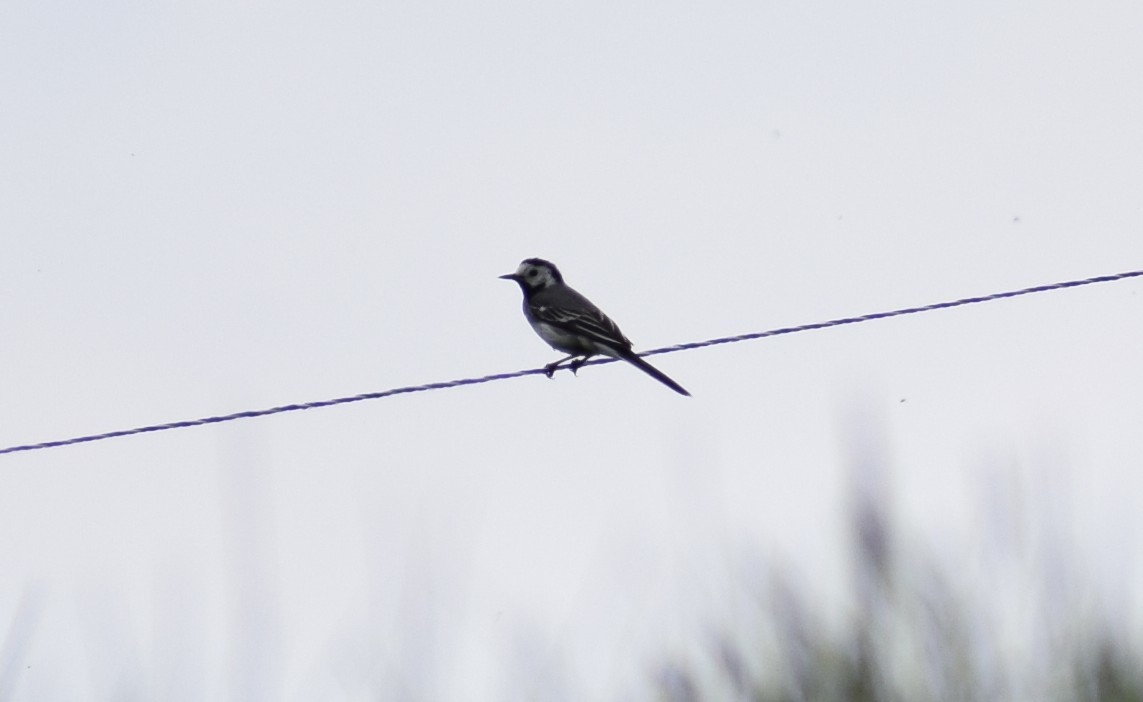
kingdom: Animalia
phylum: Chordata
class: Aves
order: Passeriformes
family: Motacillidae
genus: Motacilla
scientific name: Motacilla alba
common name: White wagtail
